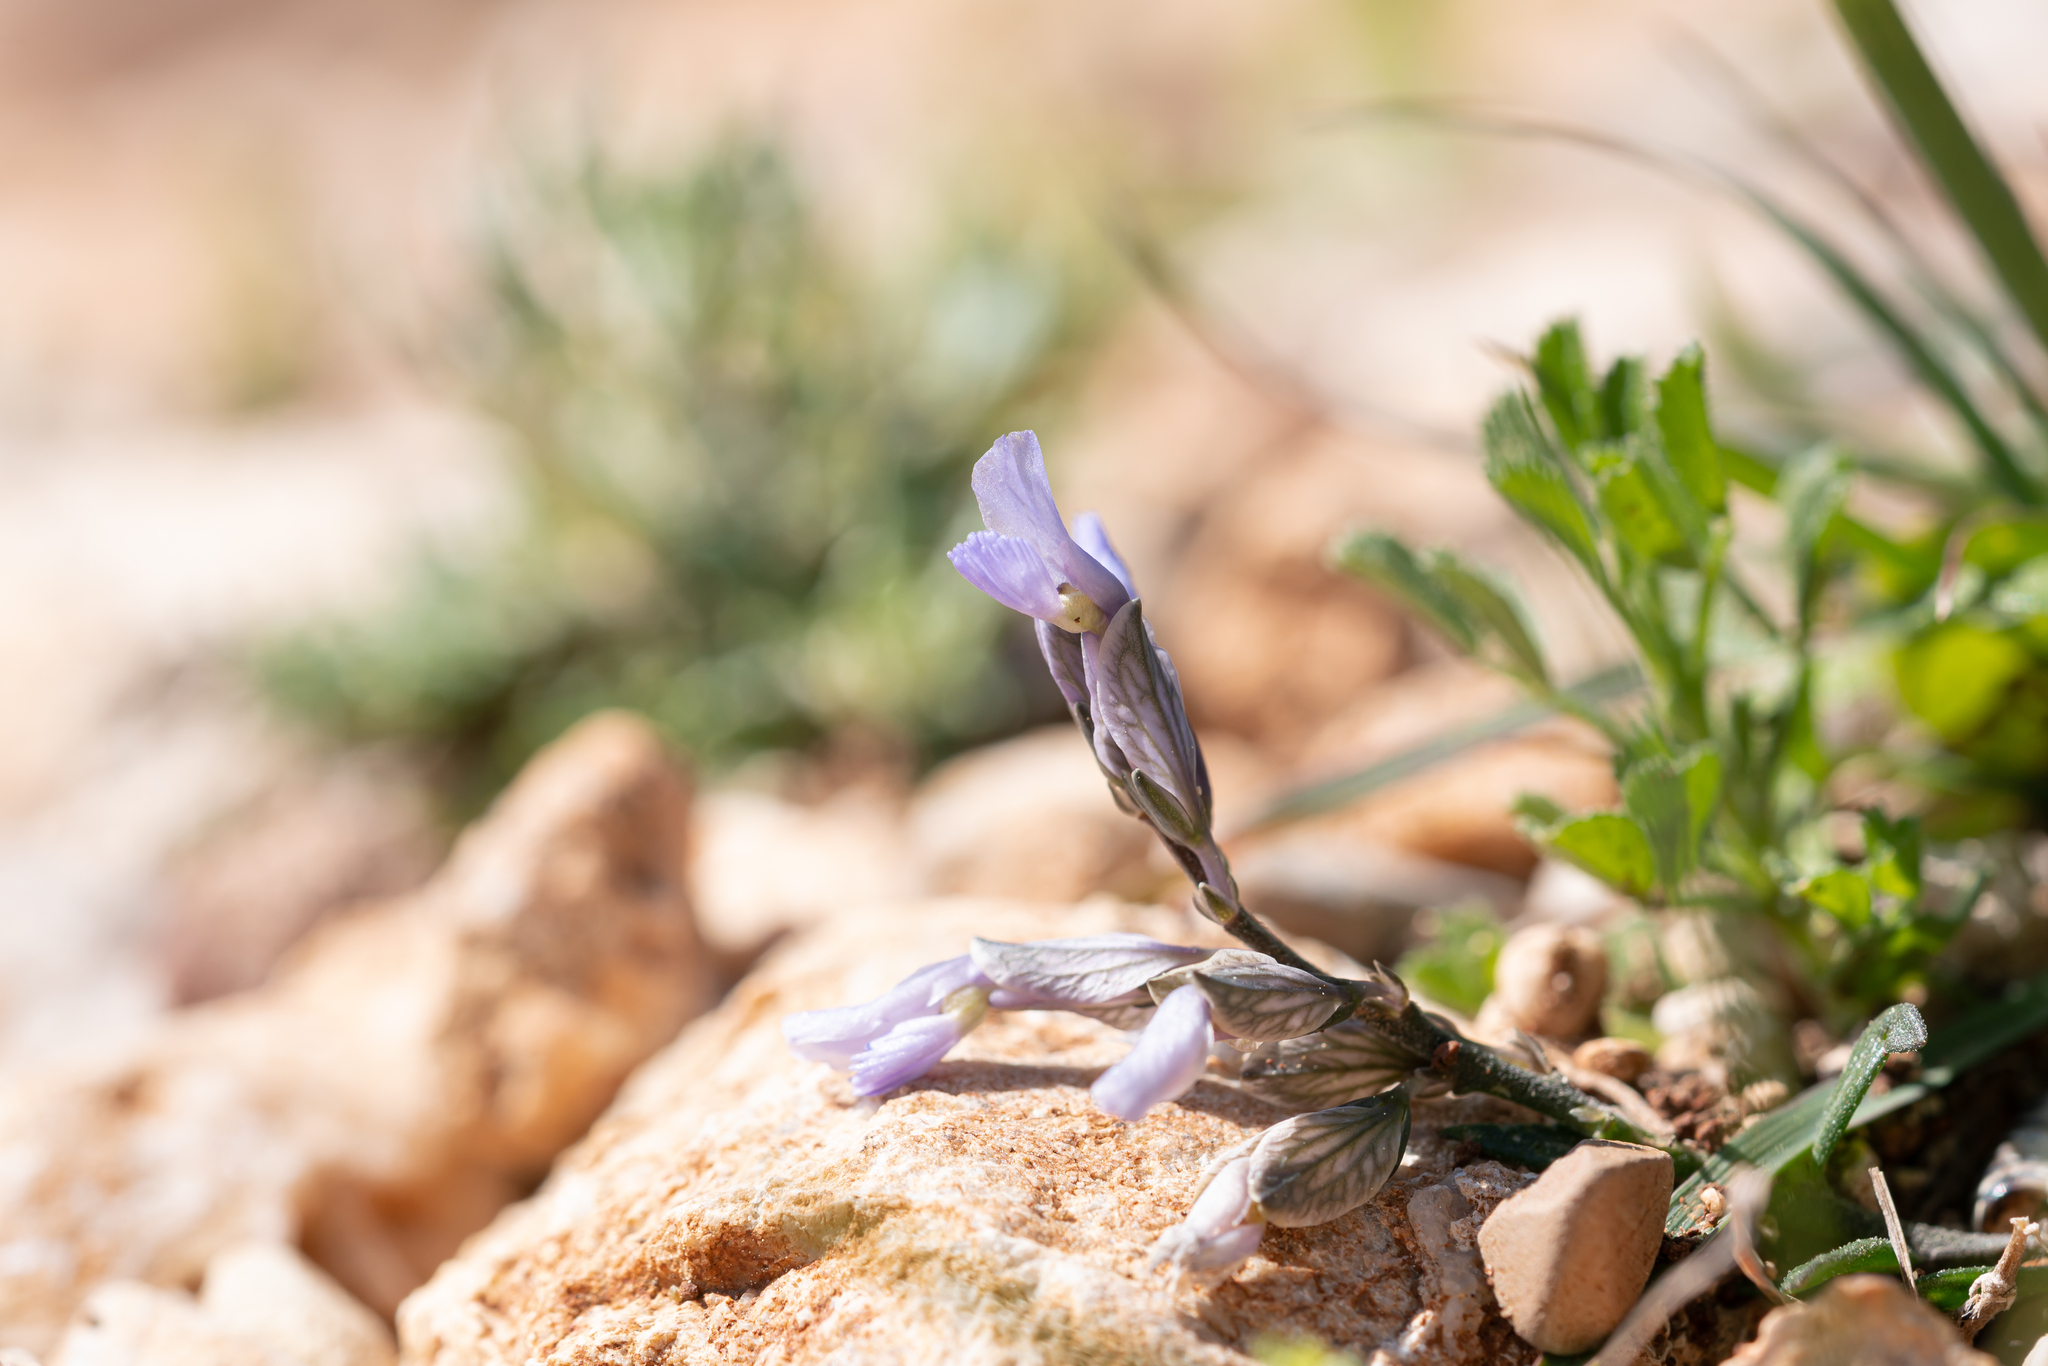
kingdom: Plantae
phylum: Tracheophyta
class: Magnoliopsida
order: Fabales
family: Polygalaceae
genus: Polygala
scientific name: Polygala venulosa
